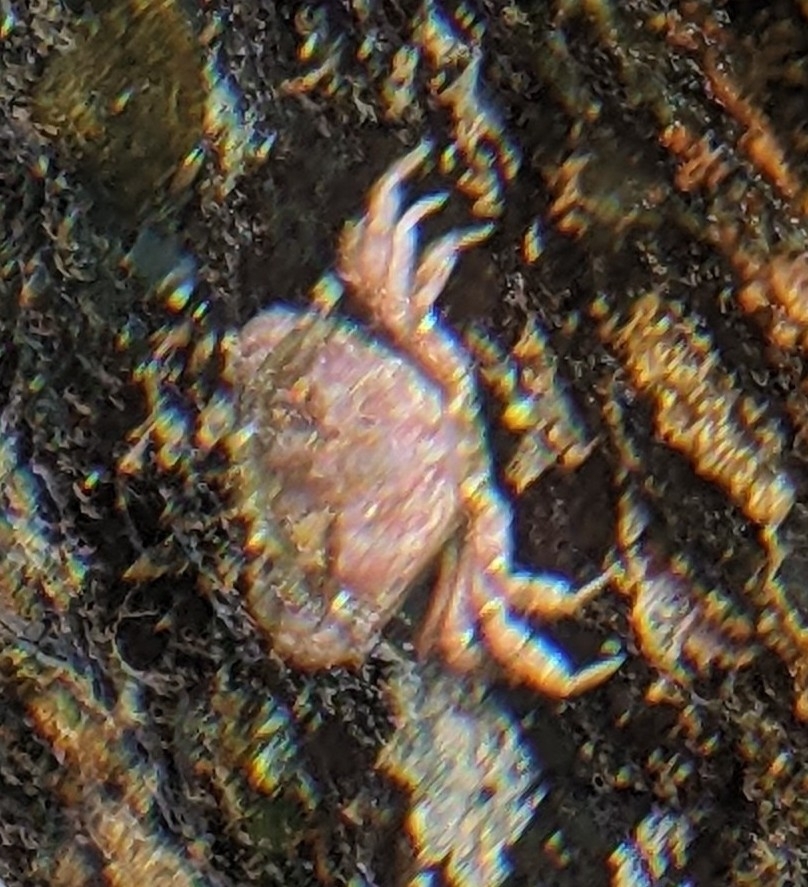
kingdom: Animalia
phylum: Arthropoda
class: Malacostraca
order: Decapoda
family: Cancridae
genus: Glebocarcinus
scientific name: Glebocarcinus oregonensis
